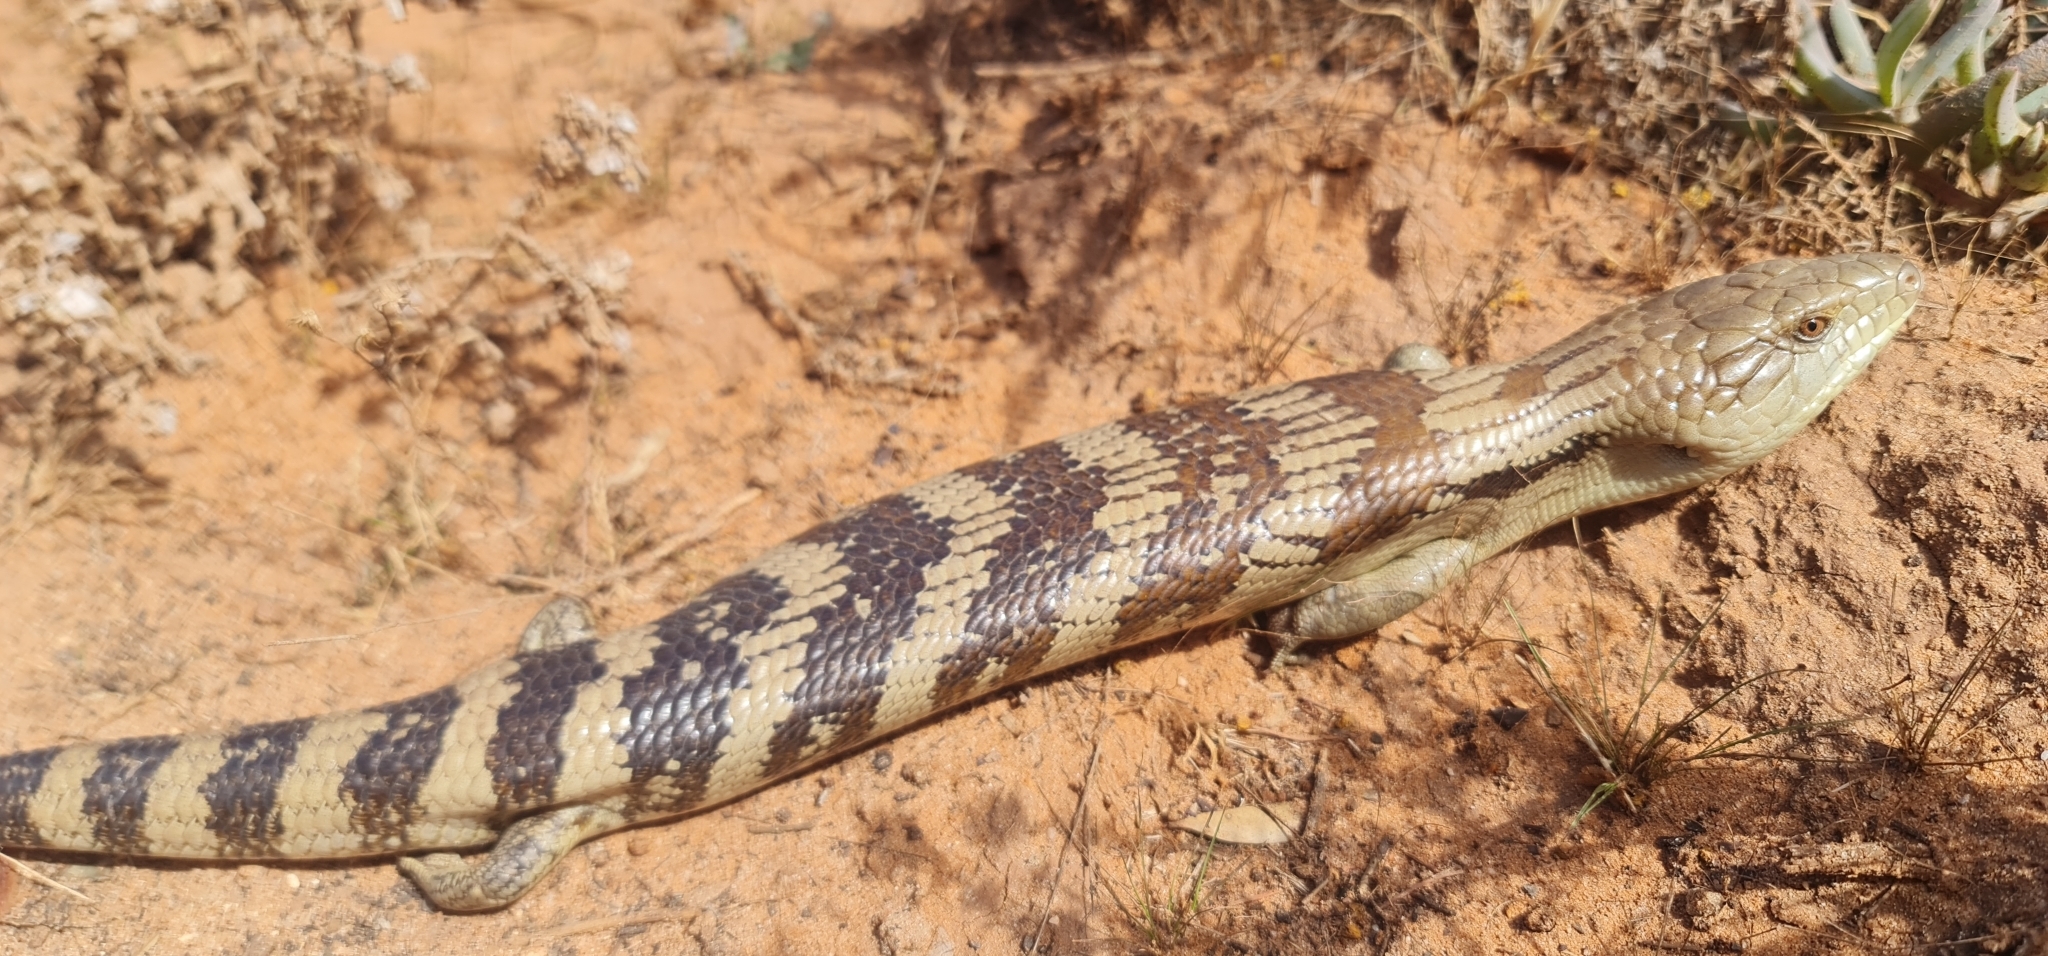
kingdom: Animalia
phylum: Chordata
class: Squamata
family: Scincidae
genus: Tiliqua
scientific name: Tiliqua scincoides
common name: Common bluetongue
